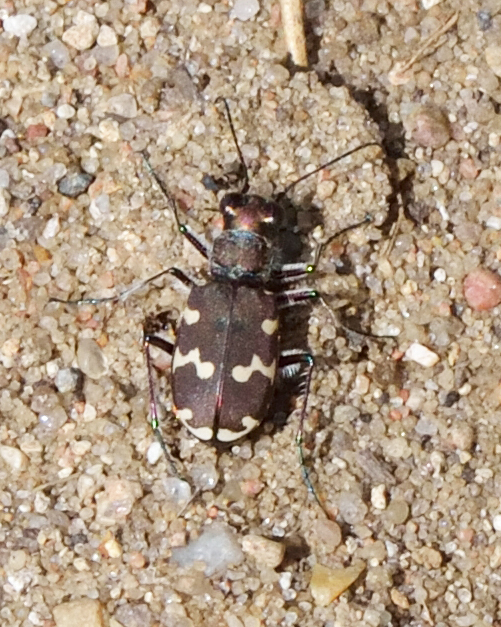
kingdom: Animalia
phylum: Arthropoda
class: Insecta
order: Coleoptera
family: Carabidae
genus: Cicindela
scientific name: Cicindela hybrida
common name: Northern dune tiger beetle
